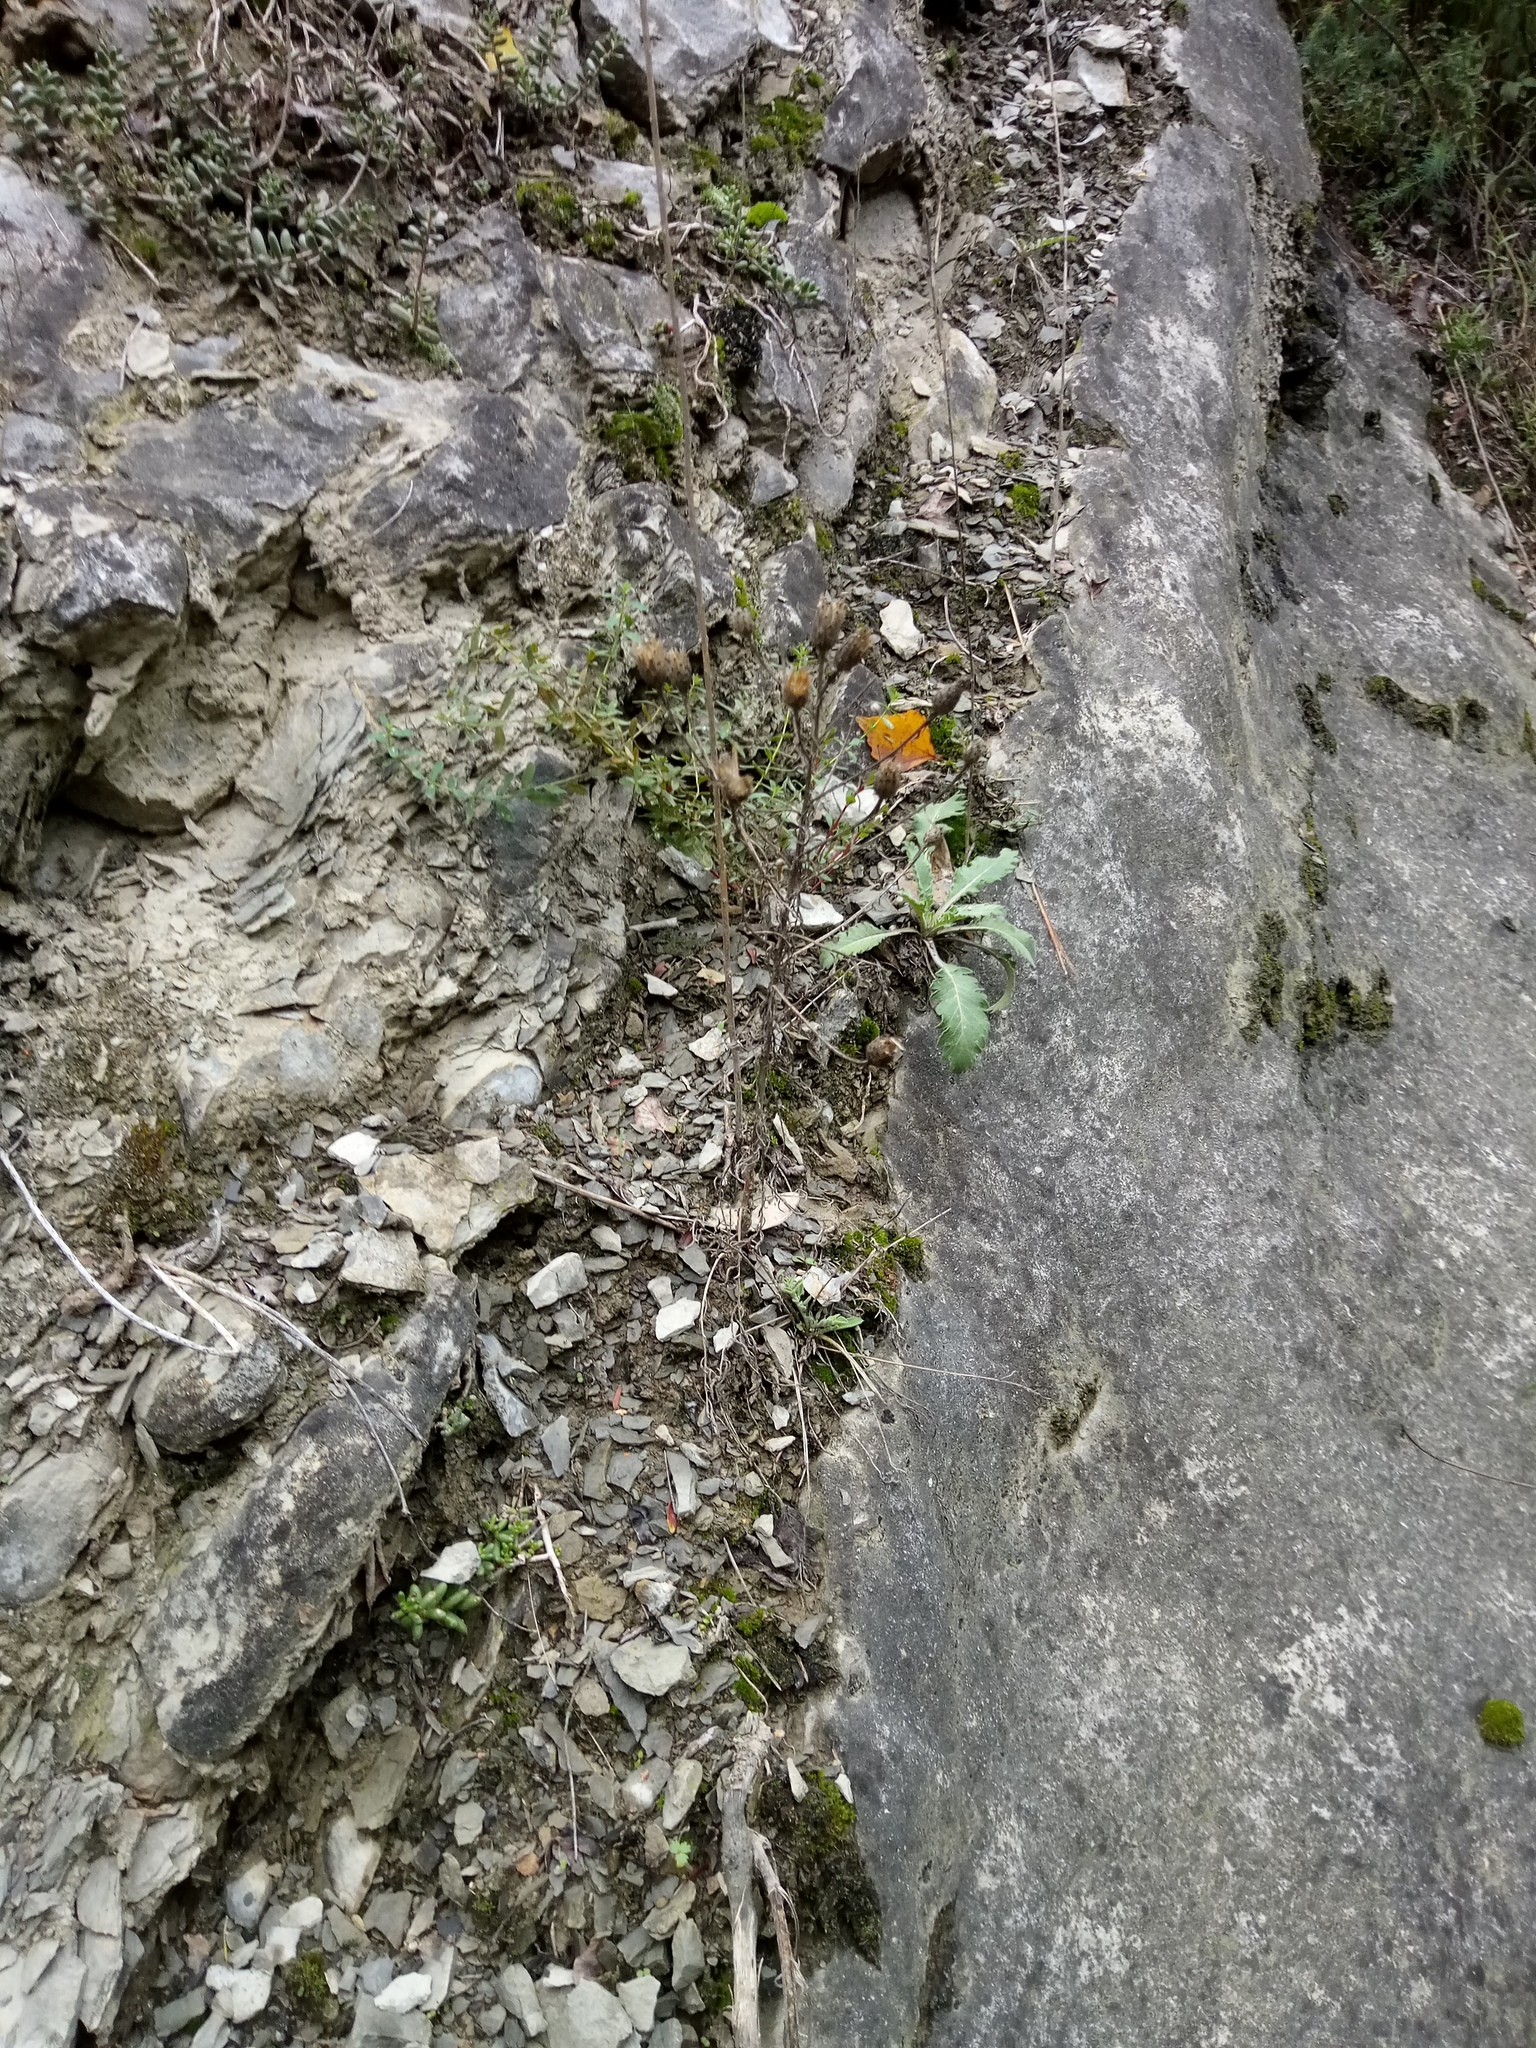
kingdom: Plantae
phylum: Tracheophyta
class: Magnoliopsida
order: Asterales
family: Asteraceae
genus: Centaurea
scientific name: Centaurea stoebe
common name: Spotted knapweed
